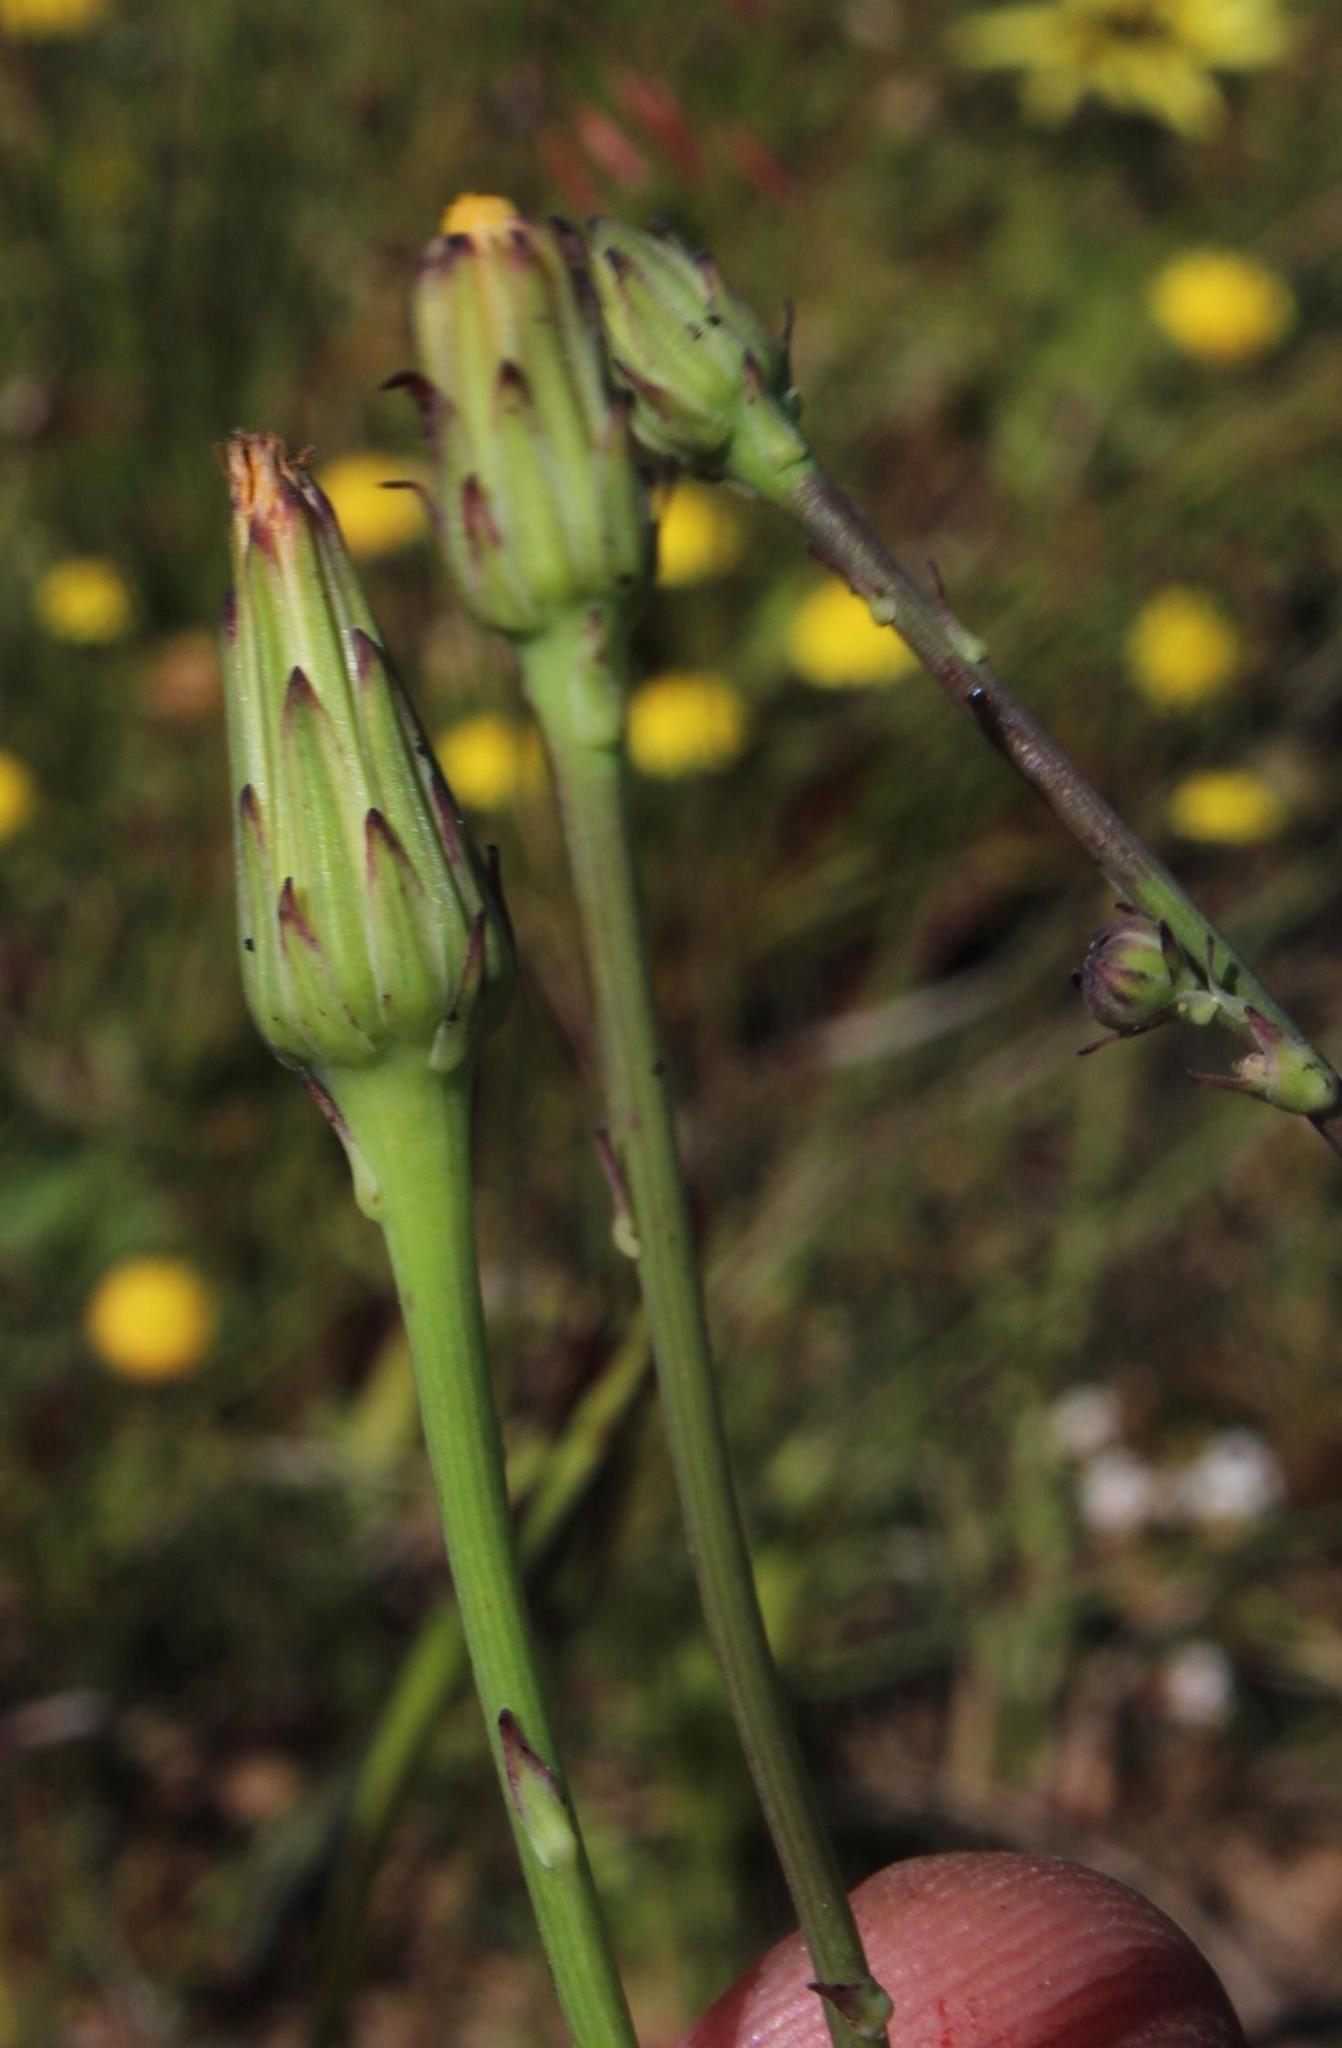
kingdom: Plantae
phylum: Tracheophyta
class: Magnoliopsida
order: Asterales
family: Asteraceae
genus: Hypochaeris
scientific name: Hypochaeris radicata
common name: Flatweed
